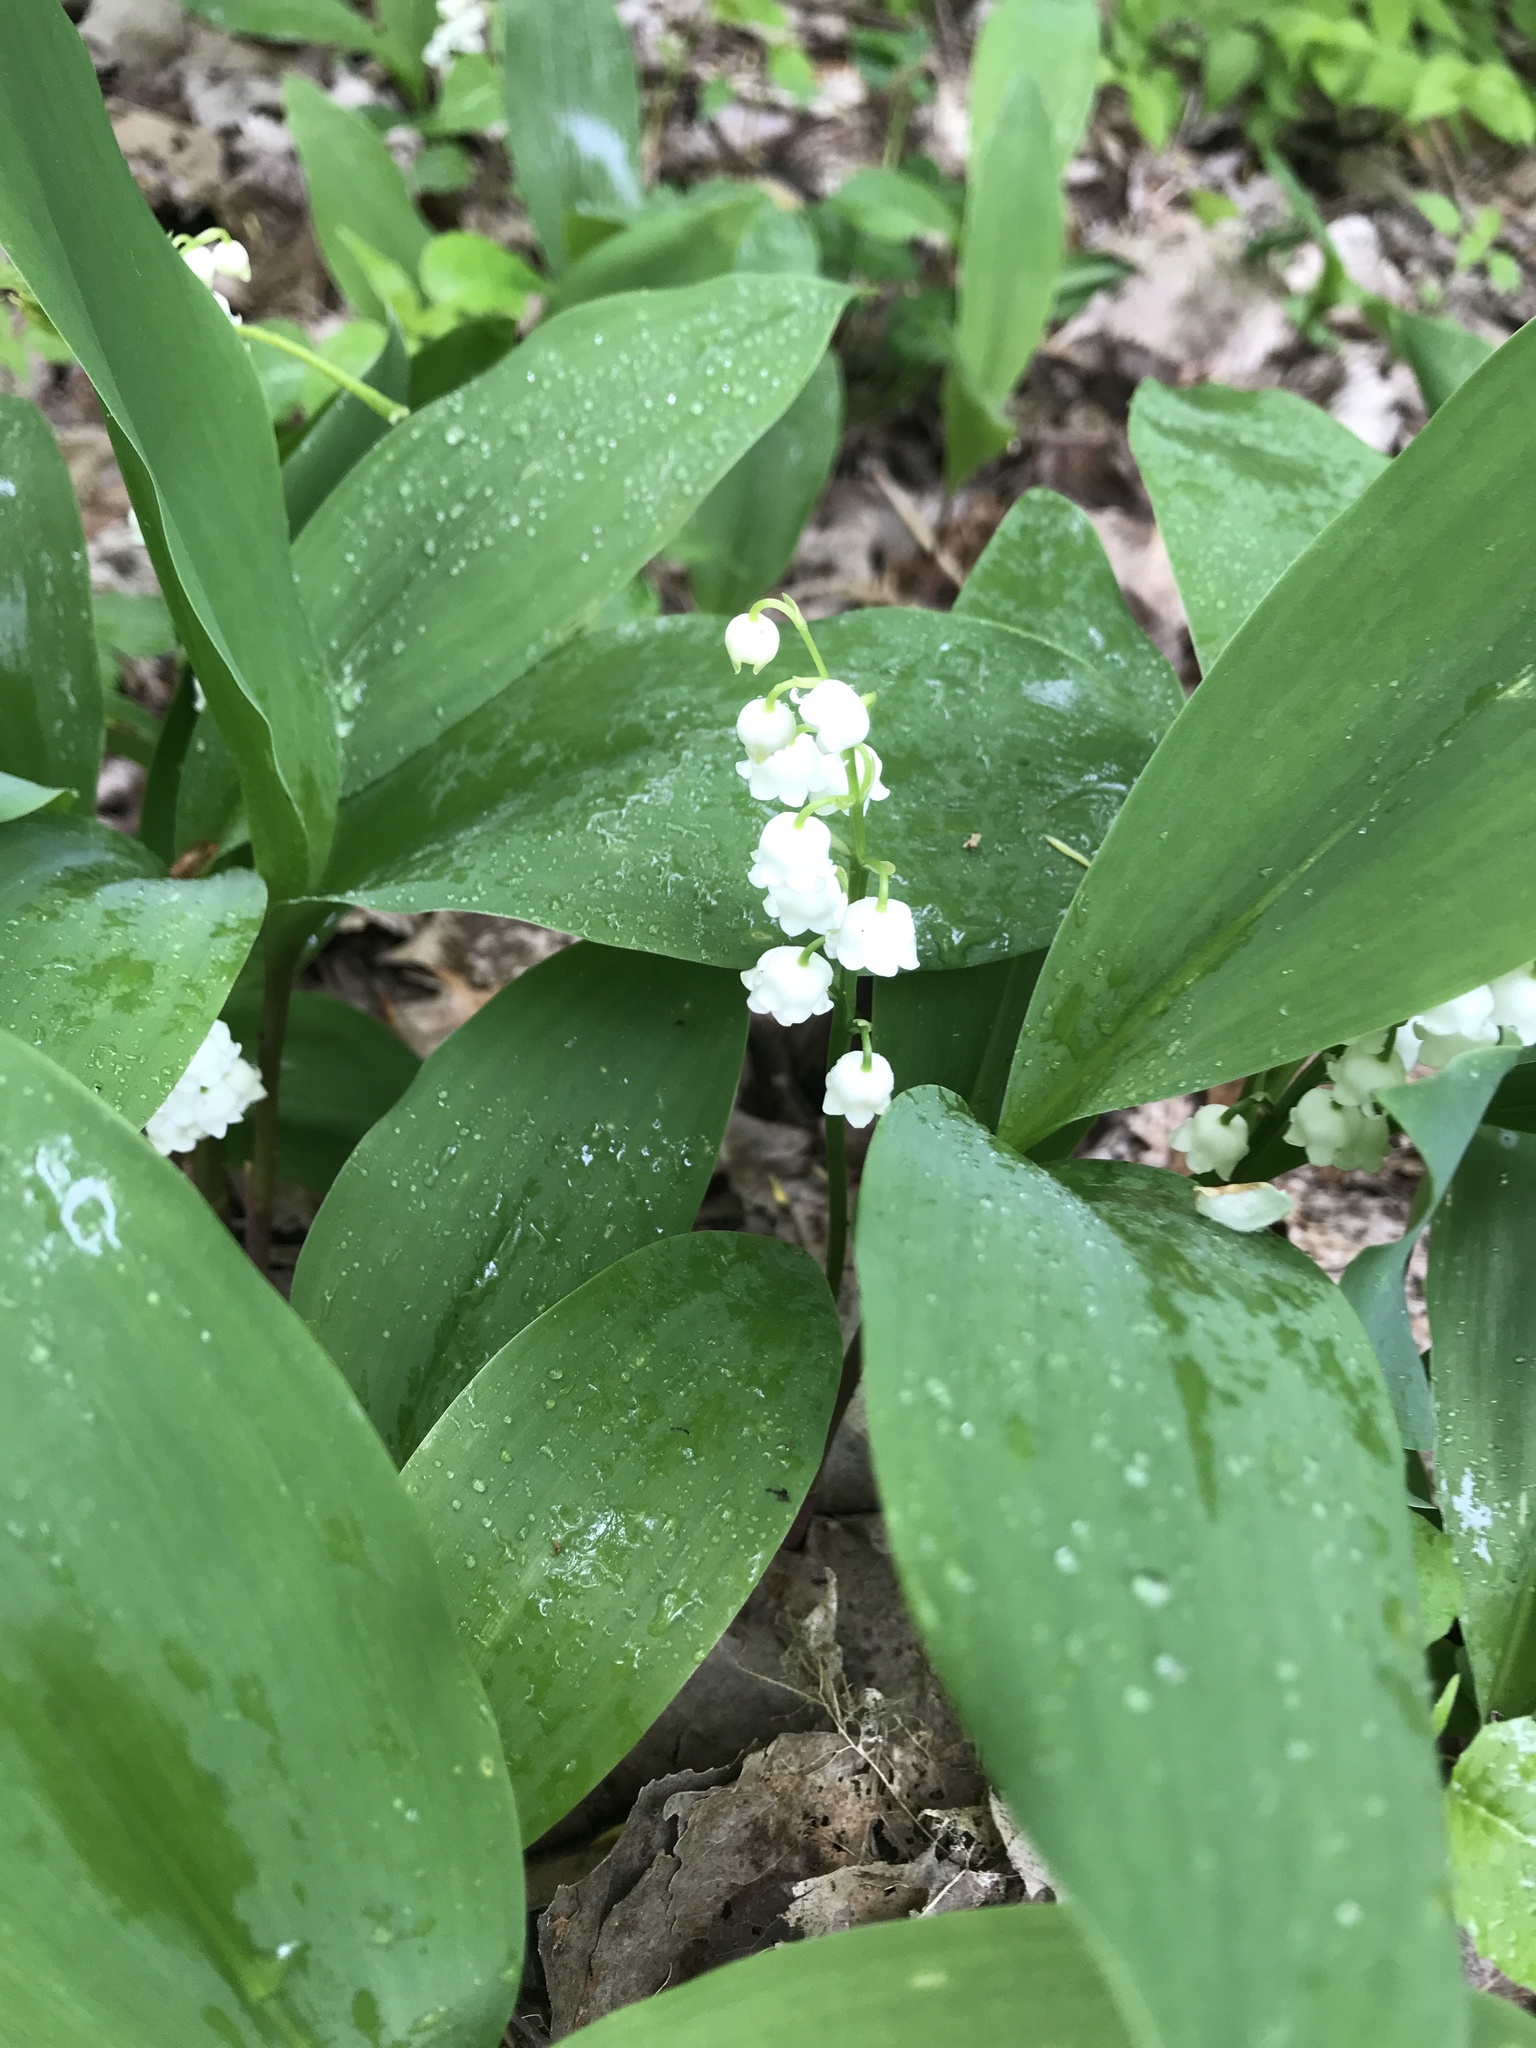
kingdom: Plantae
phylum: Tracheophyta
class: Liliopsida
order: Asparagales
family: Asparagaceae
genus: Convallaria
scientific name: Convallaria majalis
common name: Lily-of-the-valley
